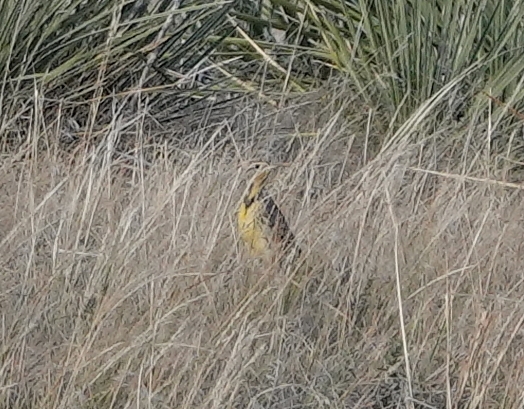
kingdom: Animalia
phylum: Chordata
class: Aves
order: Passeriformes
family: Icteridae
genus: Sturnella
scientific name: Sturnella neglecta
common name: Western meadowlark
